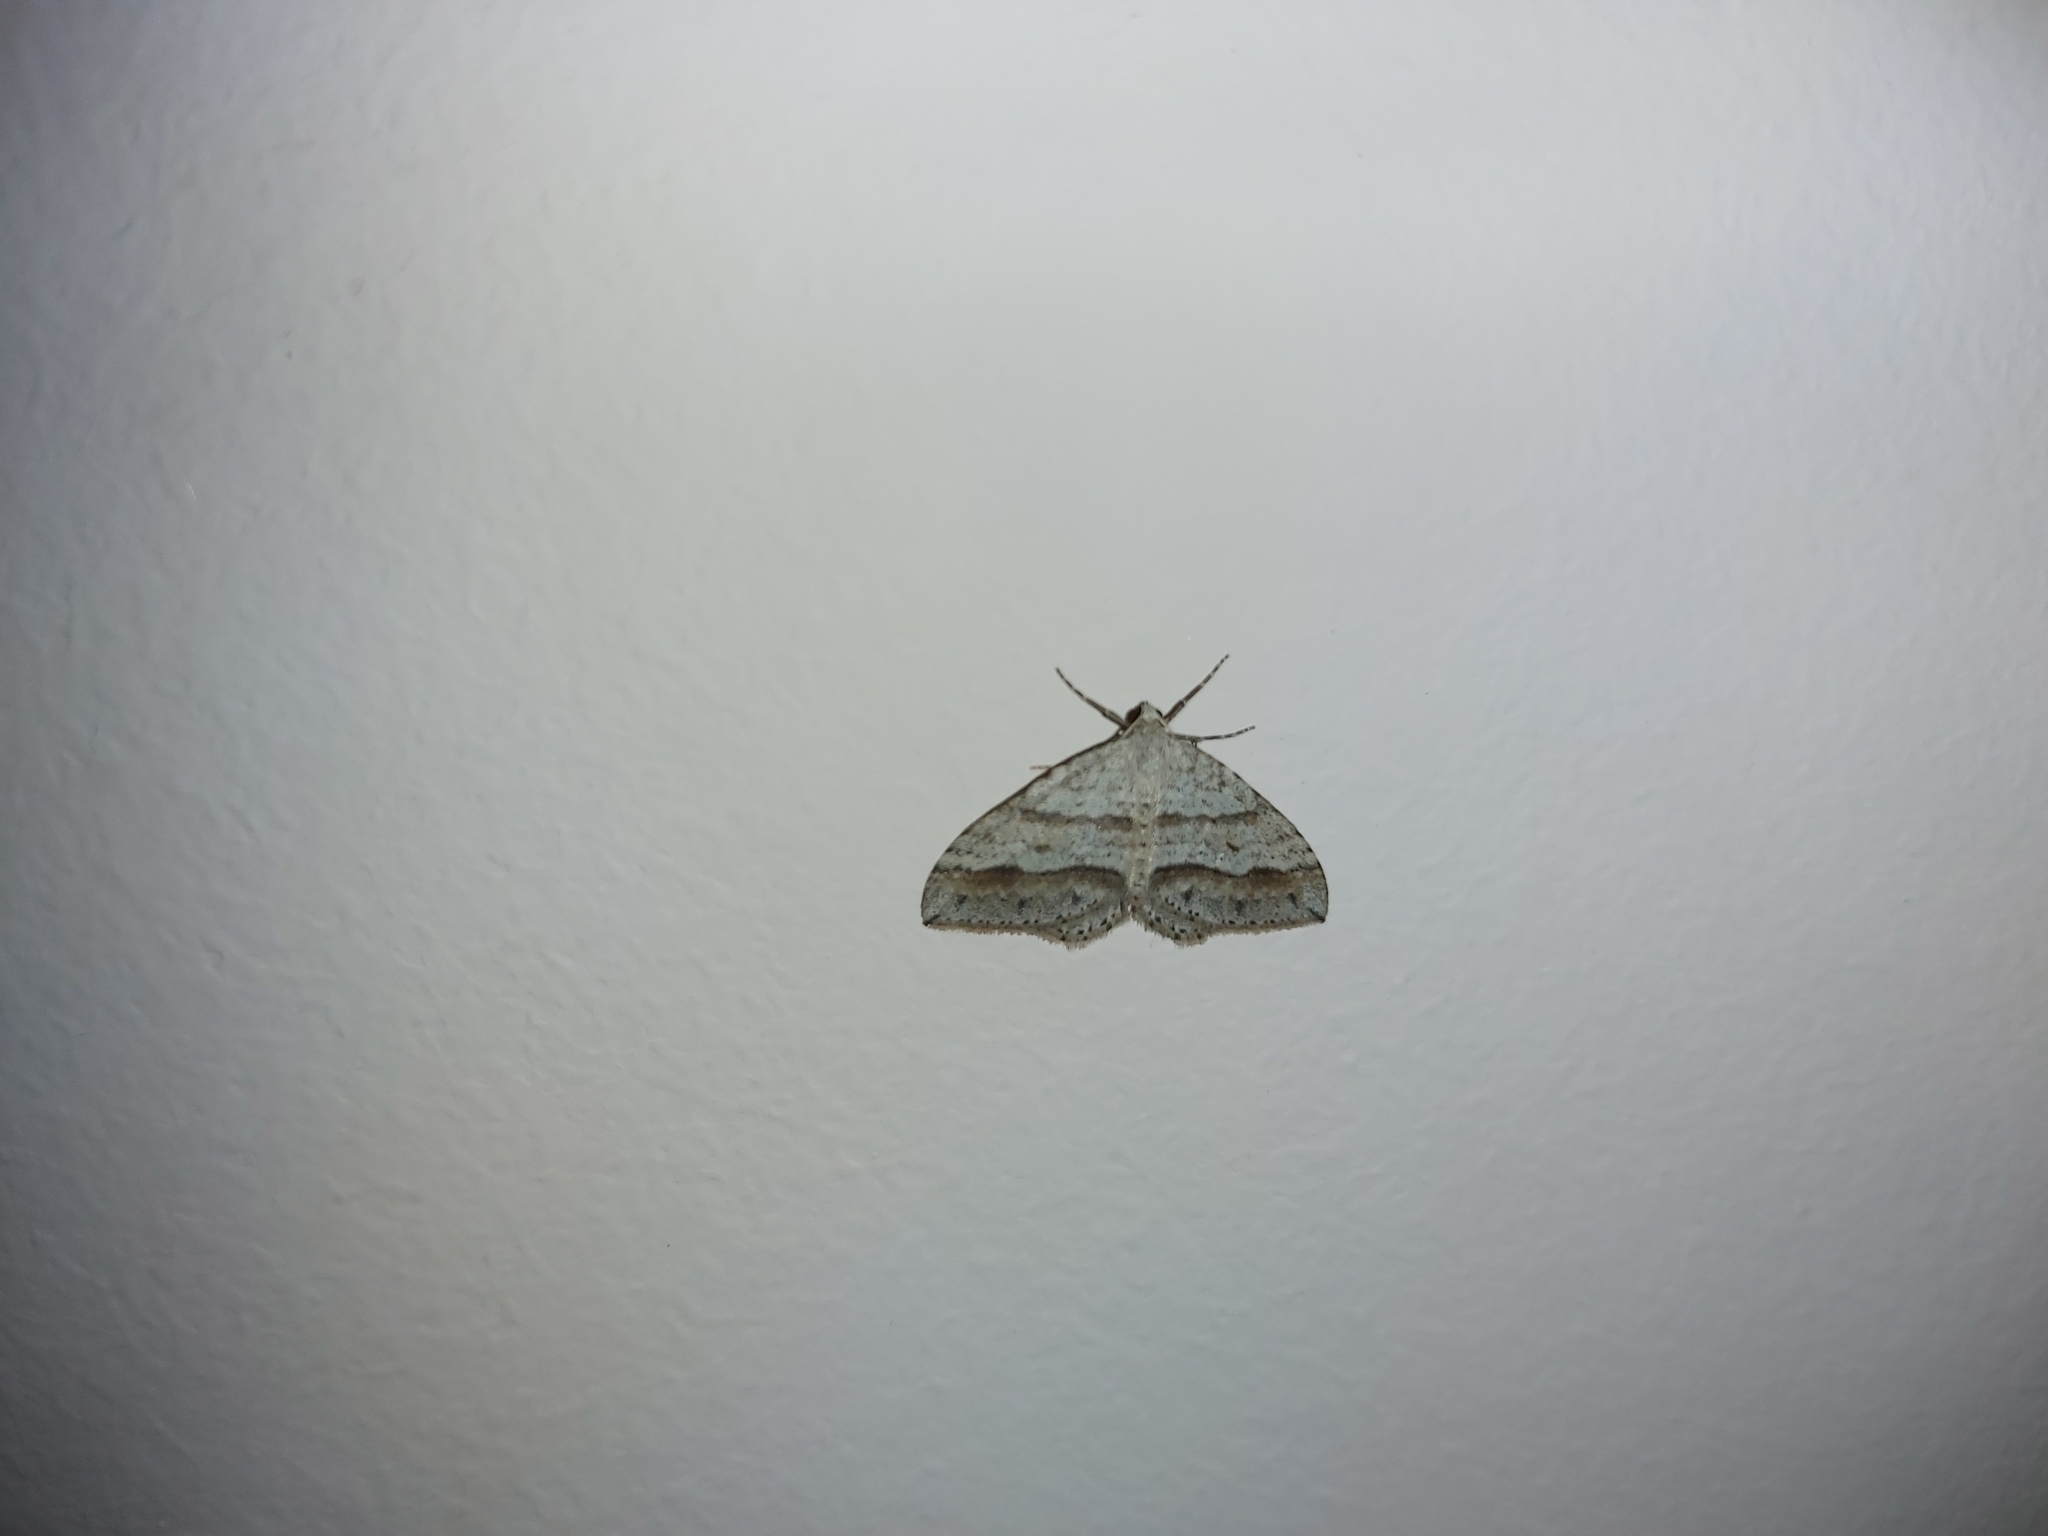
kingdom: Animalia
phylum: Arthropoda
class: Insecta
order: Lepidoptera
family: Geometridae
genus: Perizoma
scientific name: Perizoma parallelolineata
